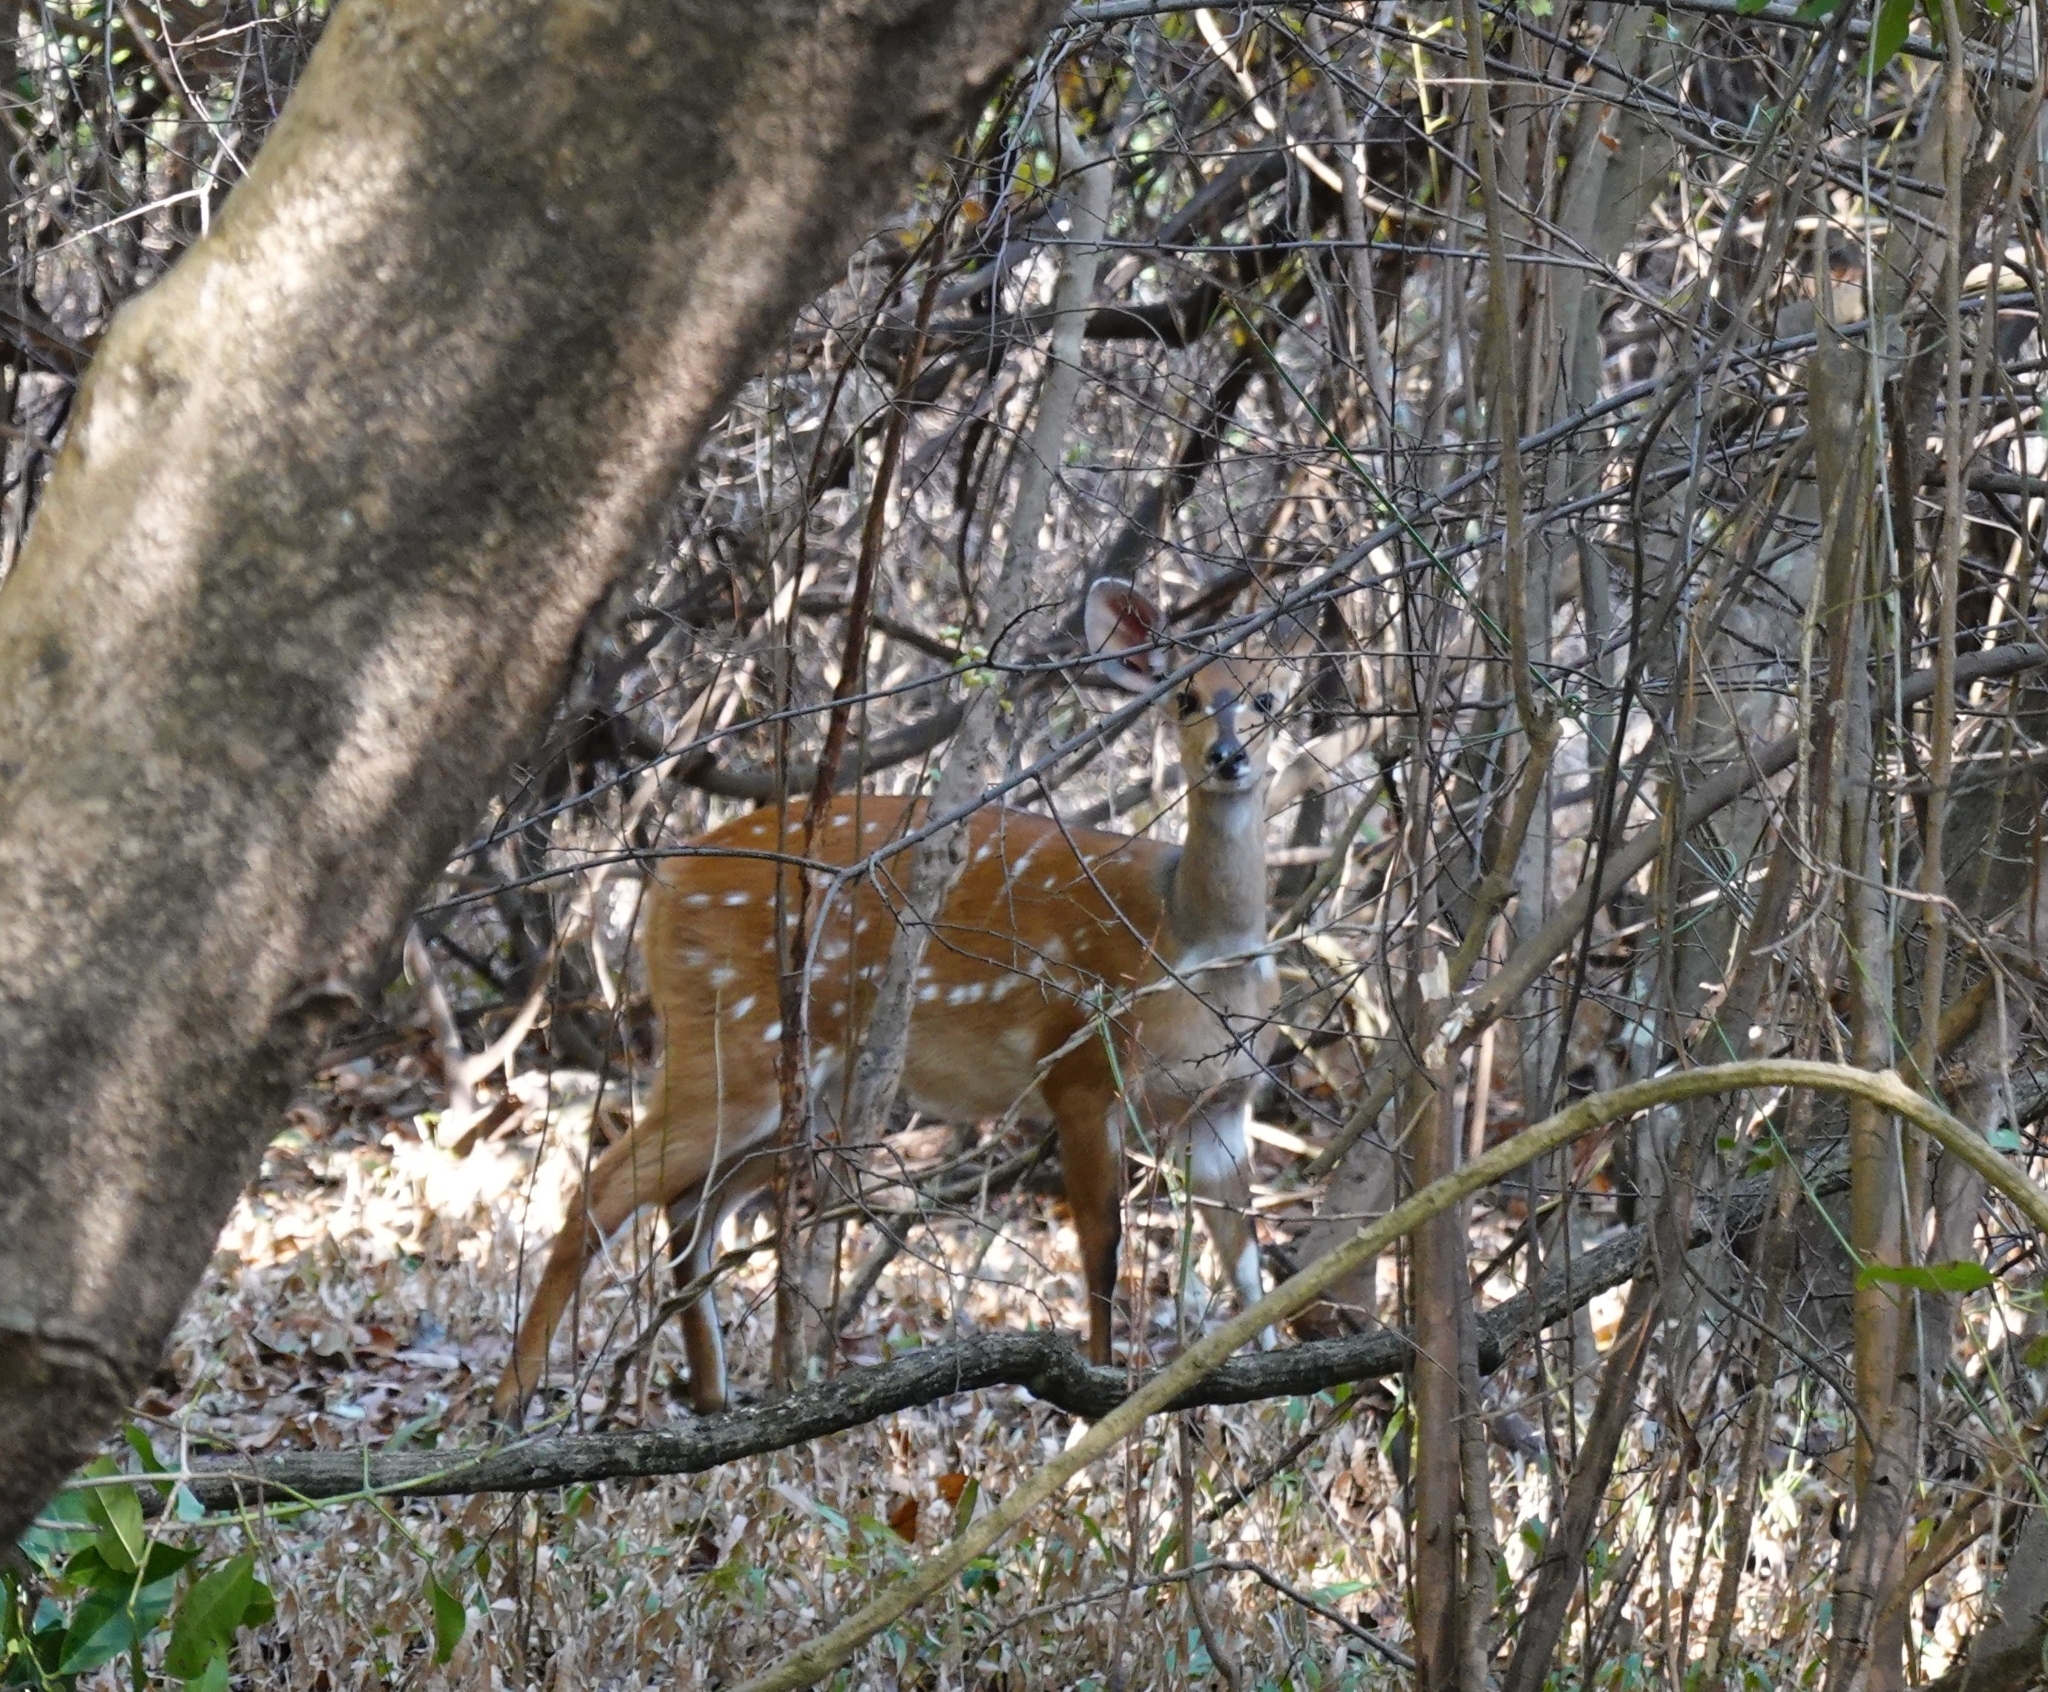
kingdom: Animalia
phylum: Chordata
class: Mammalia
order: Artiodactyla
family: Bovidae
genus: Tragelaphus
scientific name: Tragelaphus scriptus
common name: Bushbuck
